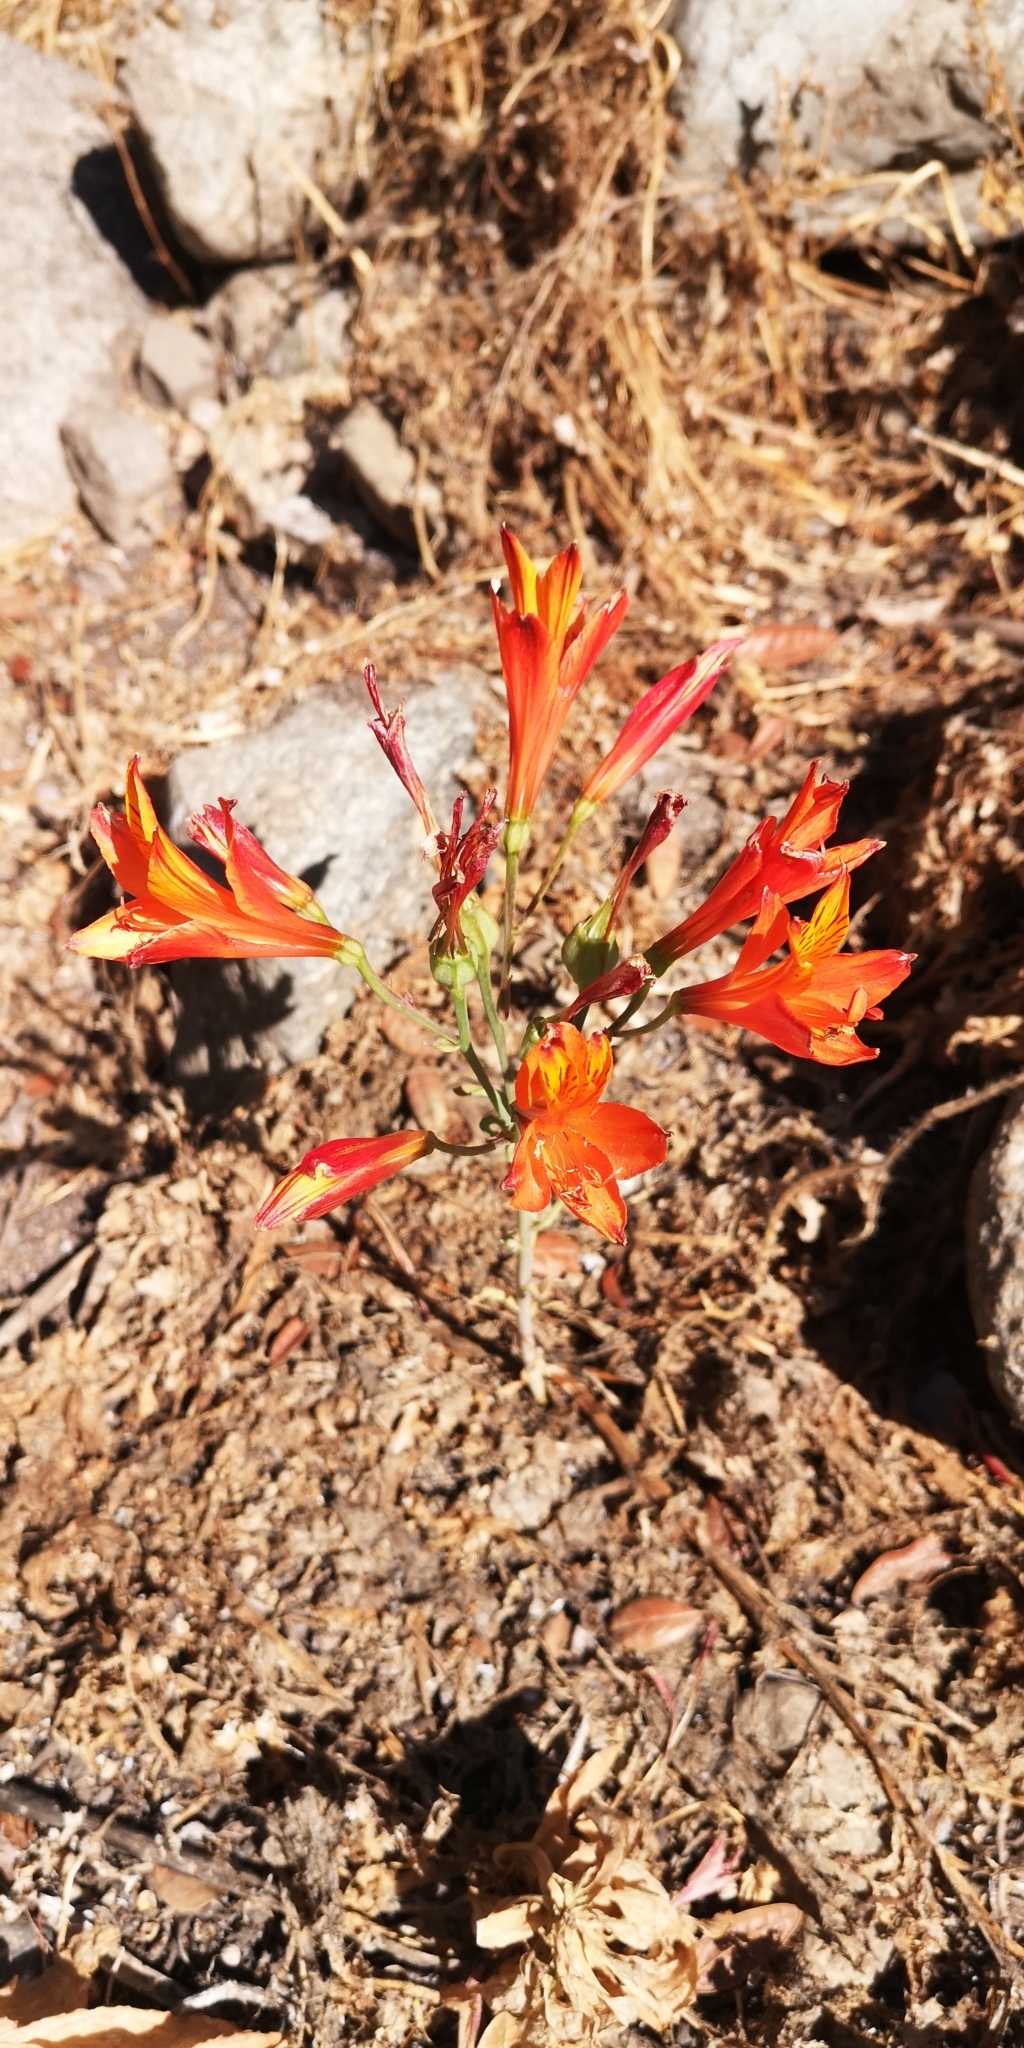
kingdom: Plantae
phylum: Tracheophyta
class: Liliopsida
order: Liliales
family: Alstroemeriaceae
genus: Alstroemeria
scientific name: Alstroemeria ligtu
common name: St. martin's-flower
